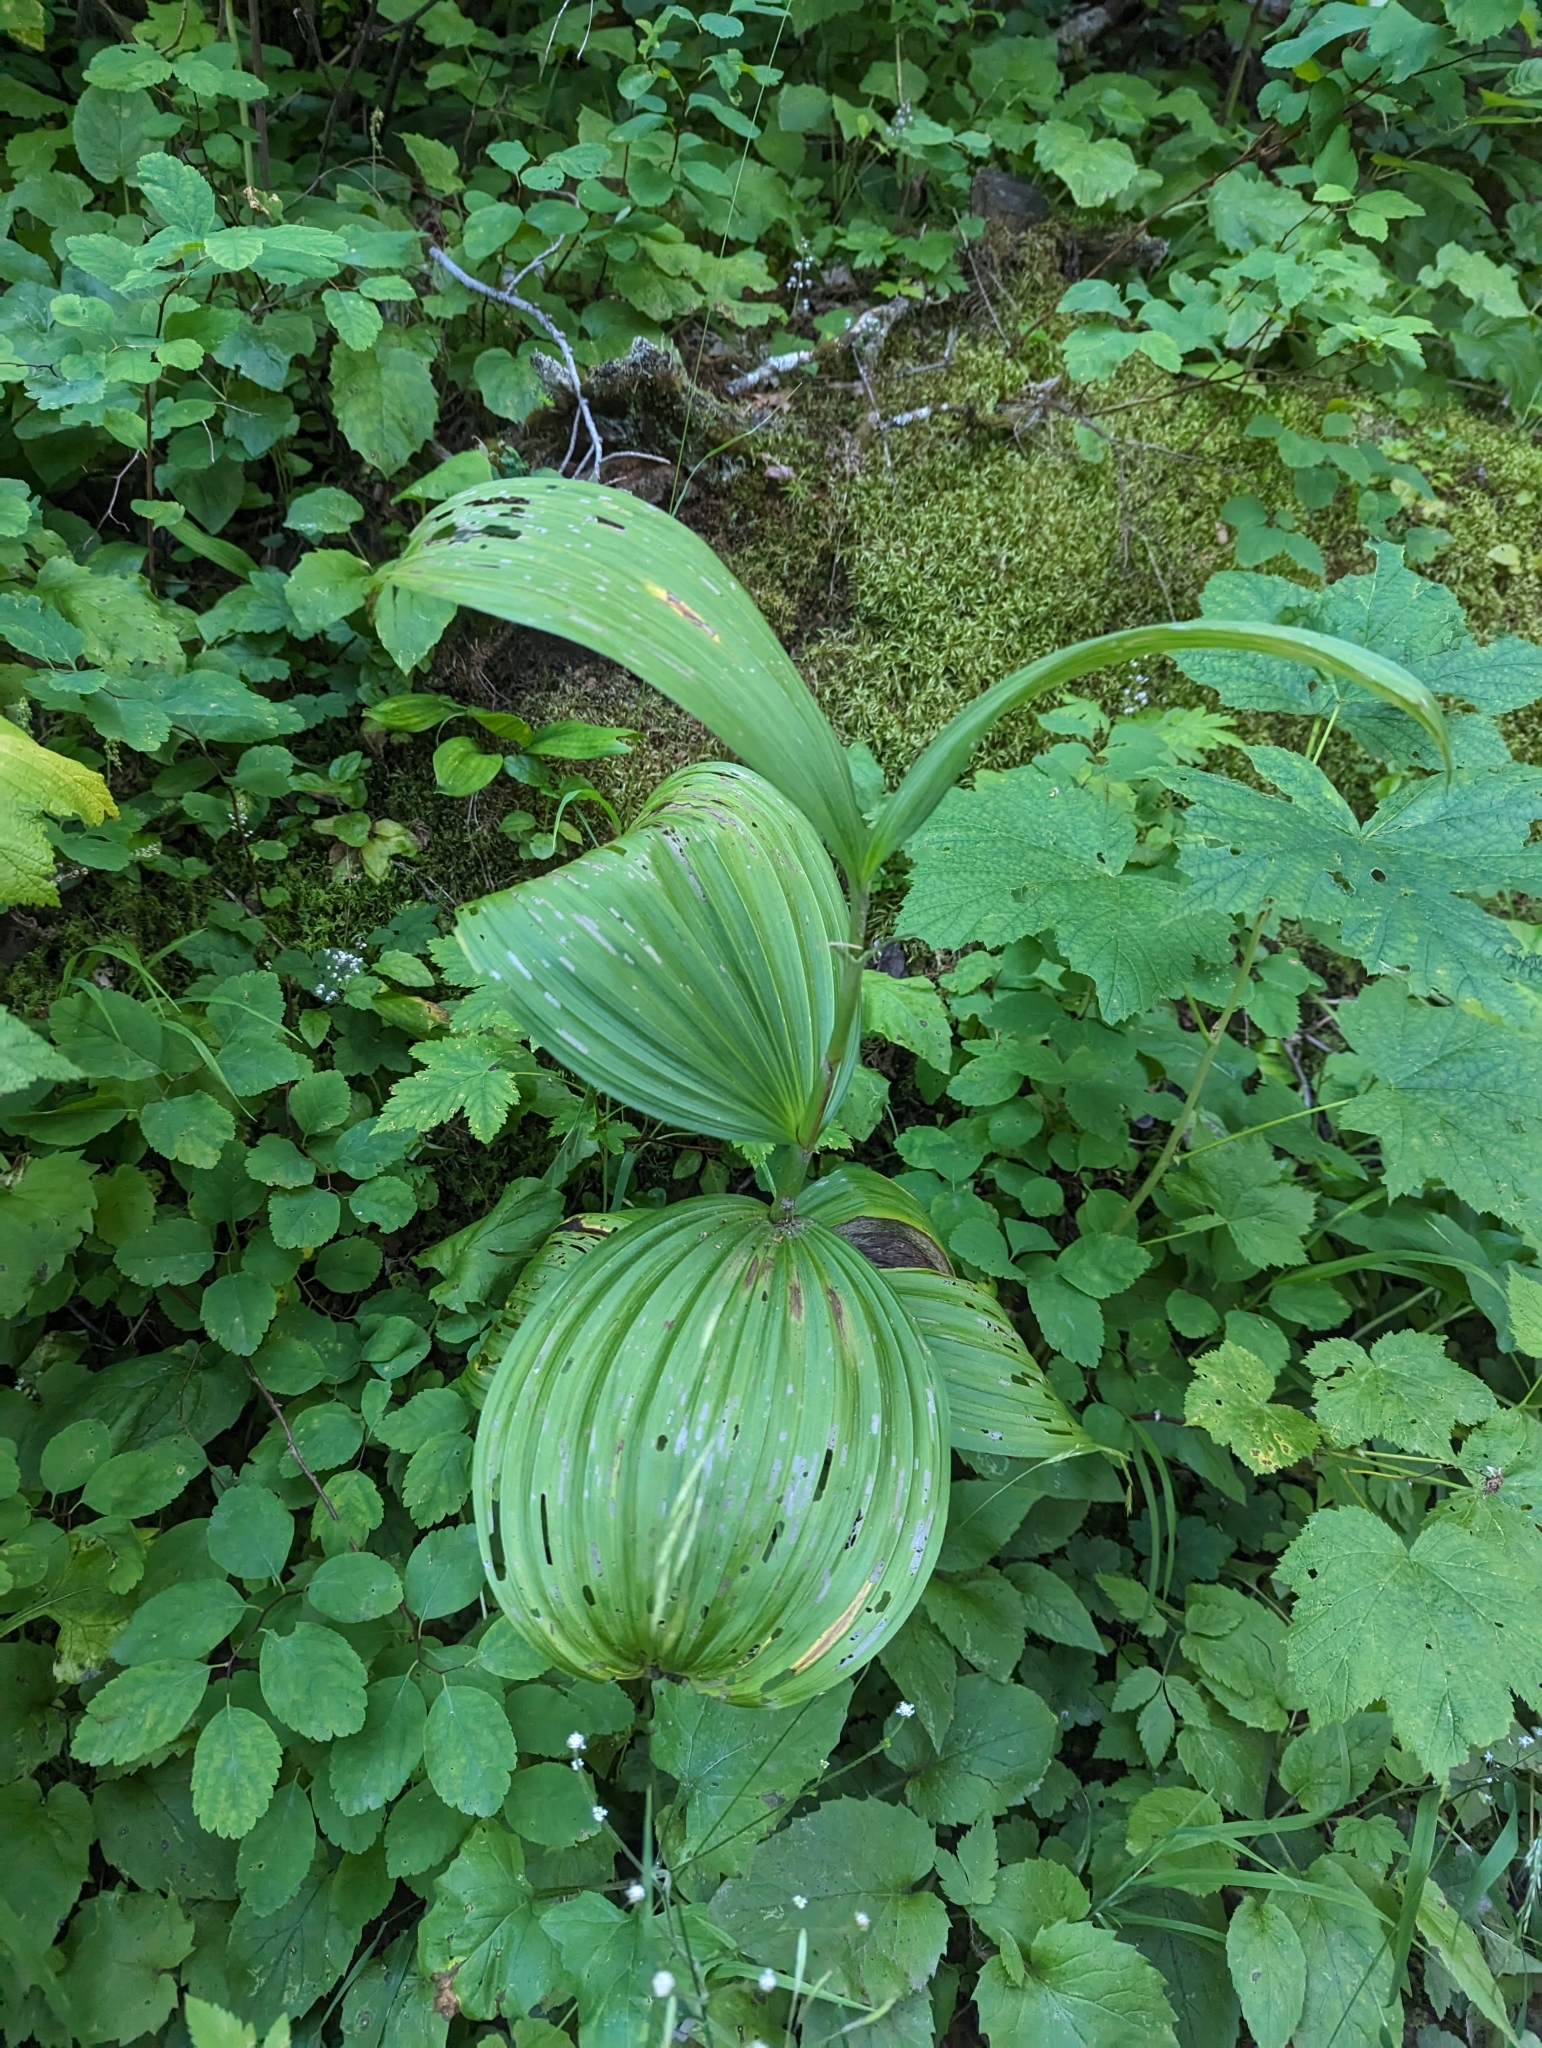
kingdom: Plantae
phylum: Tracheophyta
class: Liliopsida
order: Liliales
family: Melanthiaceae
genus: Veratrum
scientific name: Veratrum viride
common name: American false hellebore
